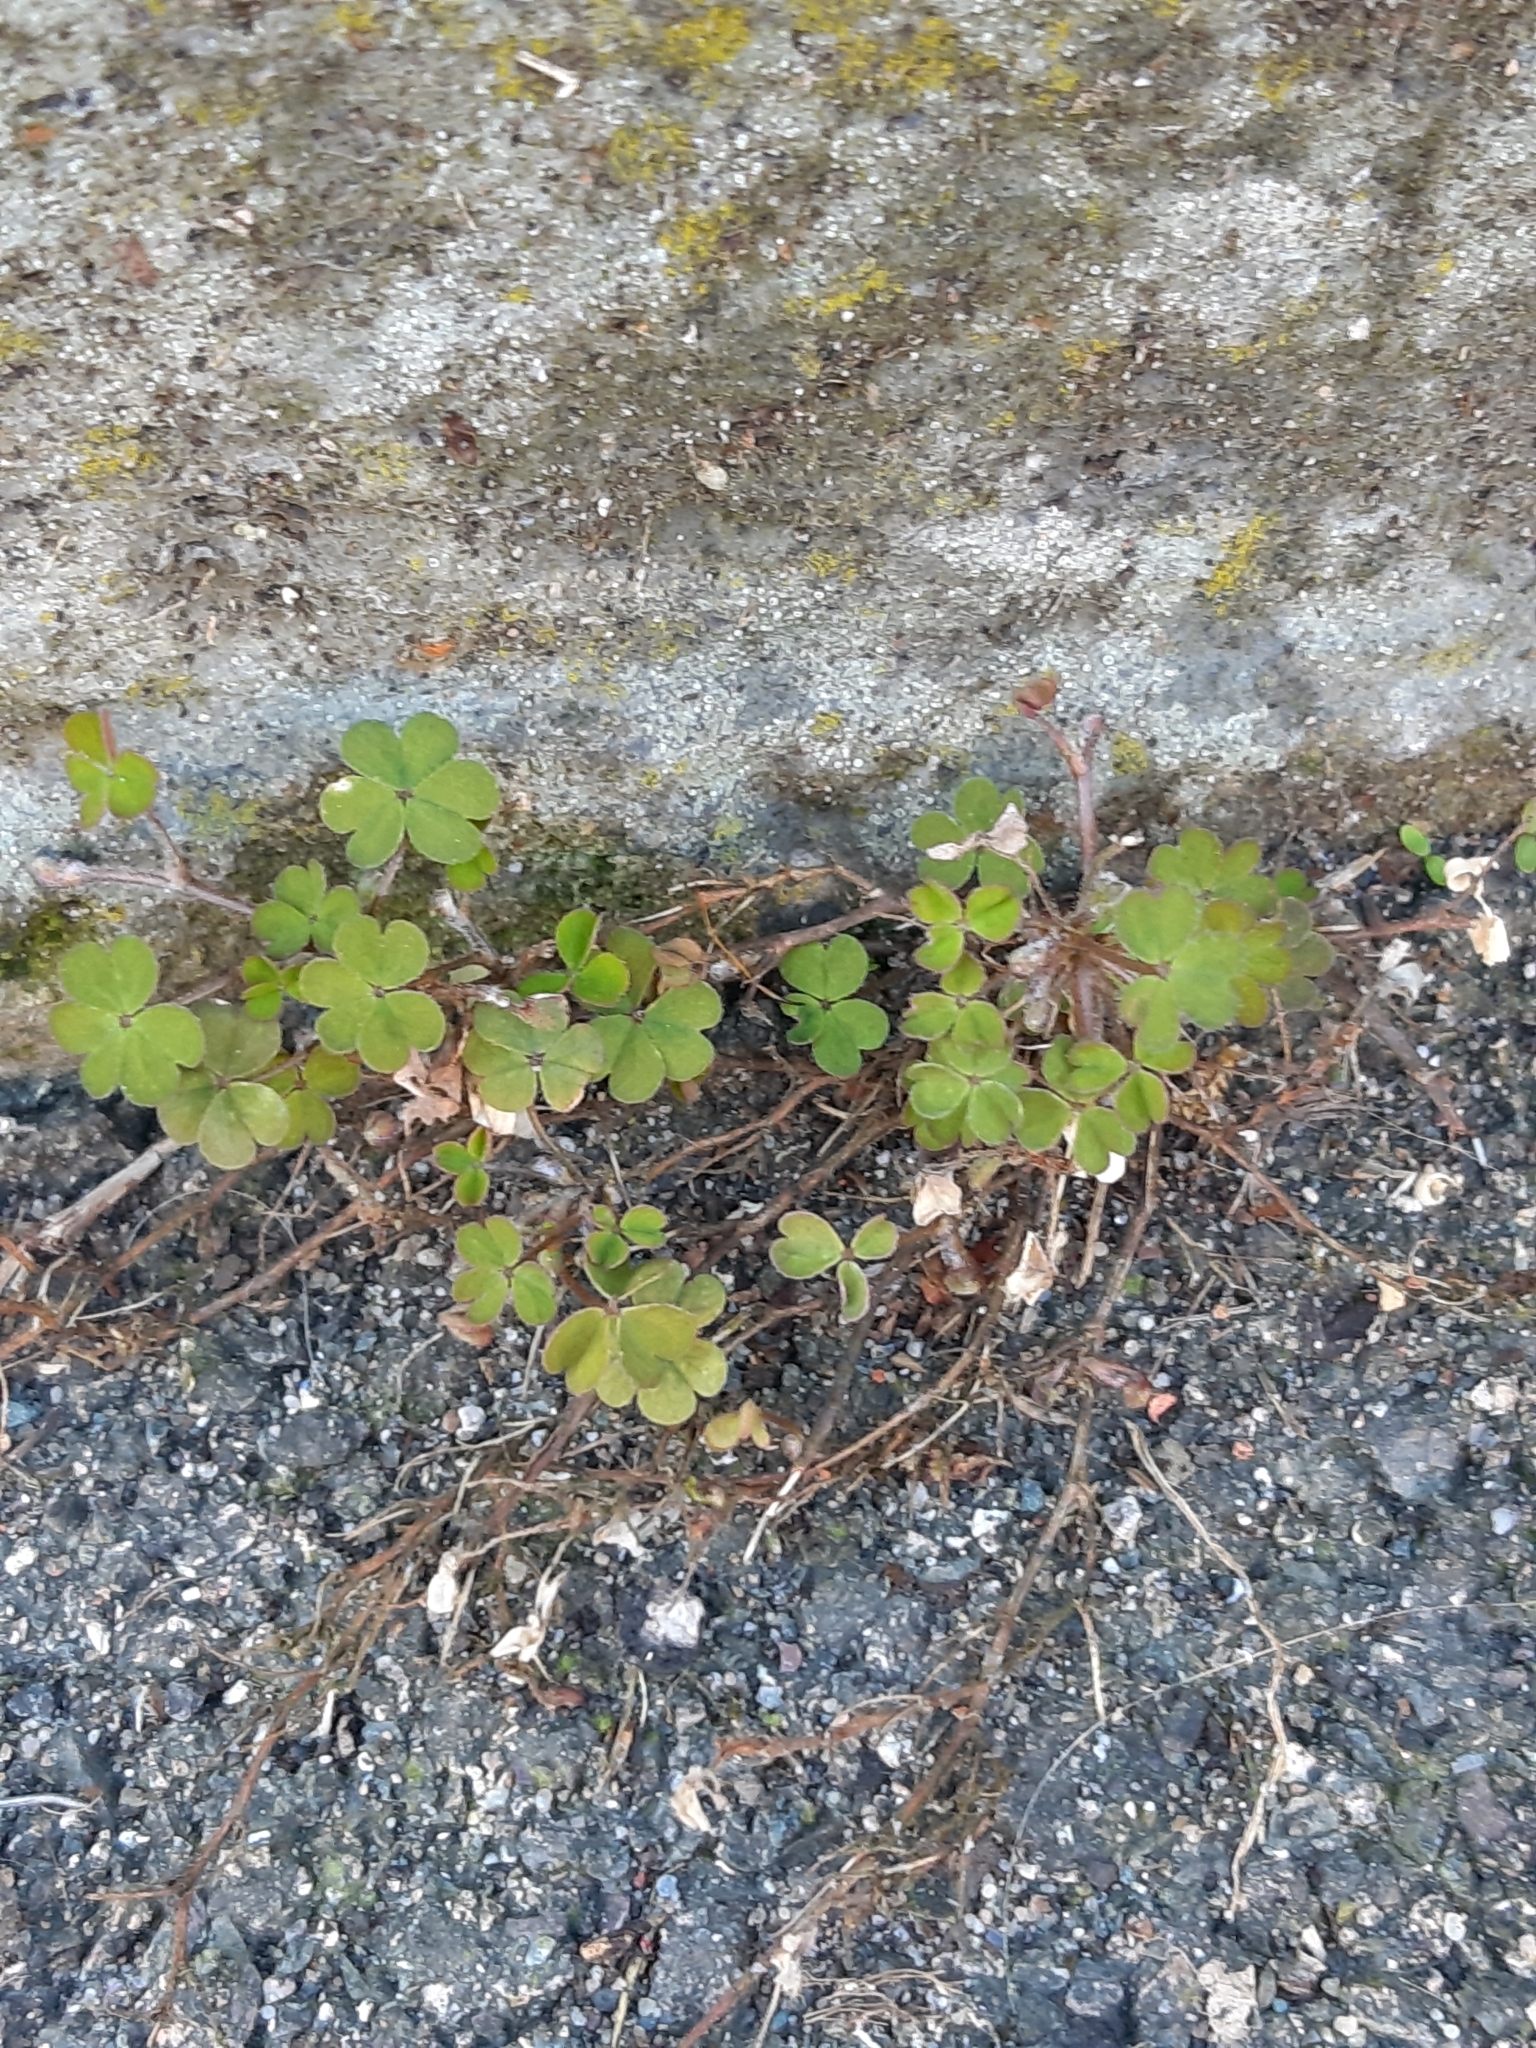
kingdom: Plantae
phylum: Tracheophyta
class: Magnoliopsida
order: Oxalidales
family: Oxalidaceae
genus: Oxalis
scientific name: Oxalis corniculata
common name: Procumbent yellow-sorrel
